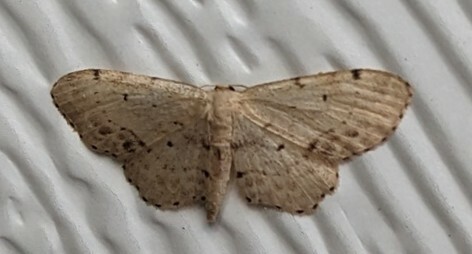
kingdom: Animalia
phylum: Arthropoda
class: Insecta
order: Lepidoptera
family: Geometridae
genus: Idaea
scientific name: Idaea dimidiata
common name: Single-dotted wave
